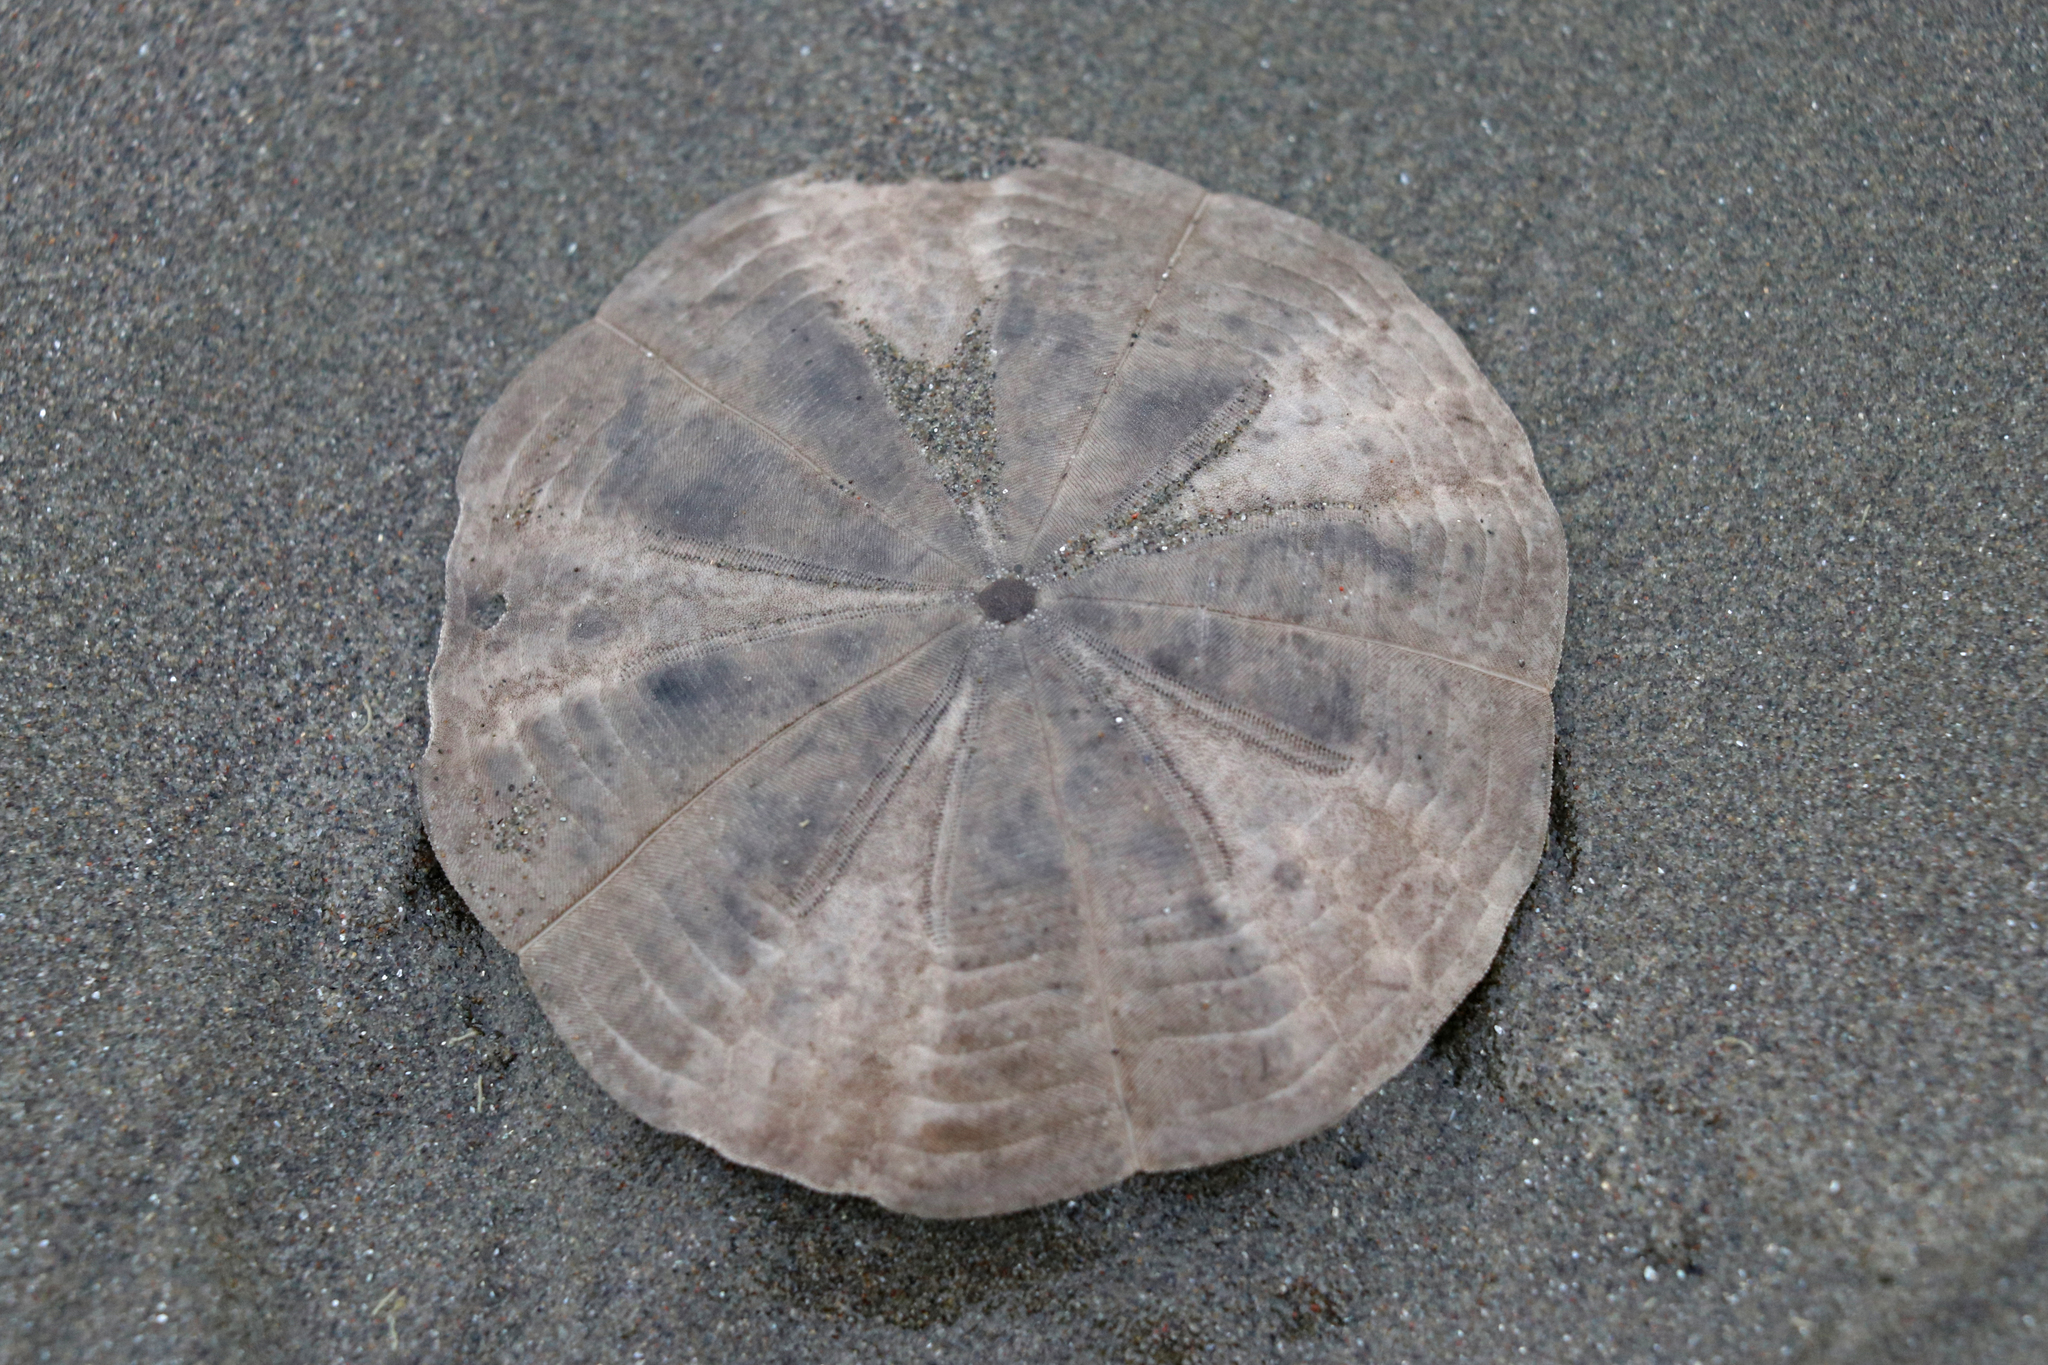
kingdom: Animalia
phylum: Echinodermata
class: Echinoidea
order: Clypeasteroida
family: Clypeasteridae
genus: Fellaster
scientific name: Fellaster zelandiae
